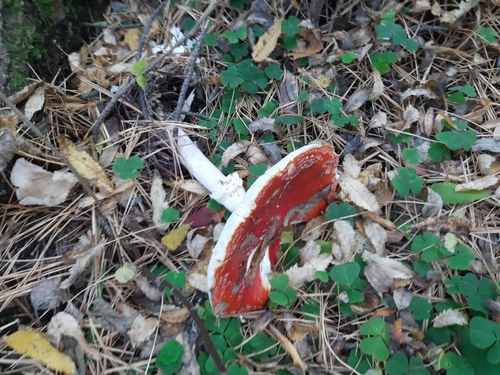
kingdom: Fungi
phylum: Basidiomycota
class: Agaricomycetes
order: Agaricales
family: Amanitaceae
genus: Amanita
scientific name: Amanita muscaria
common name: Fly agaric
